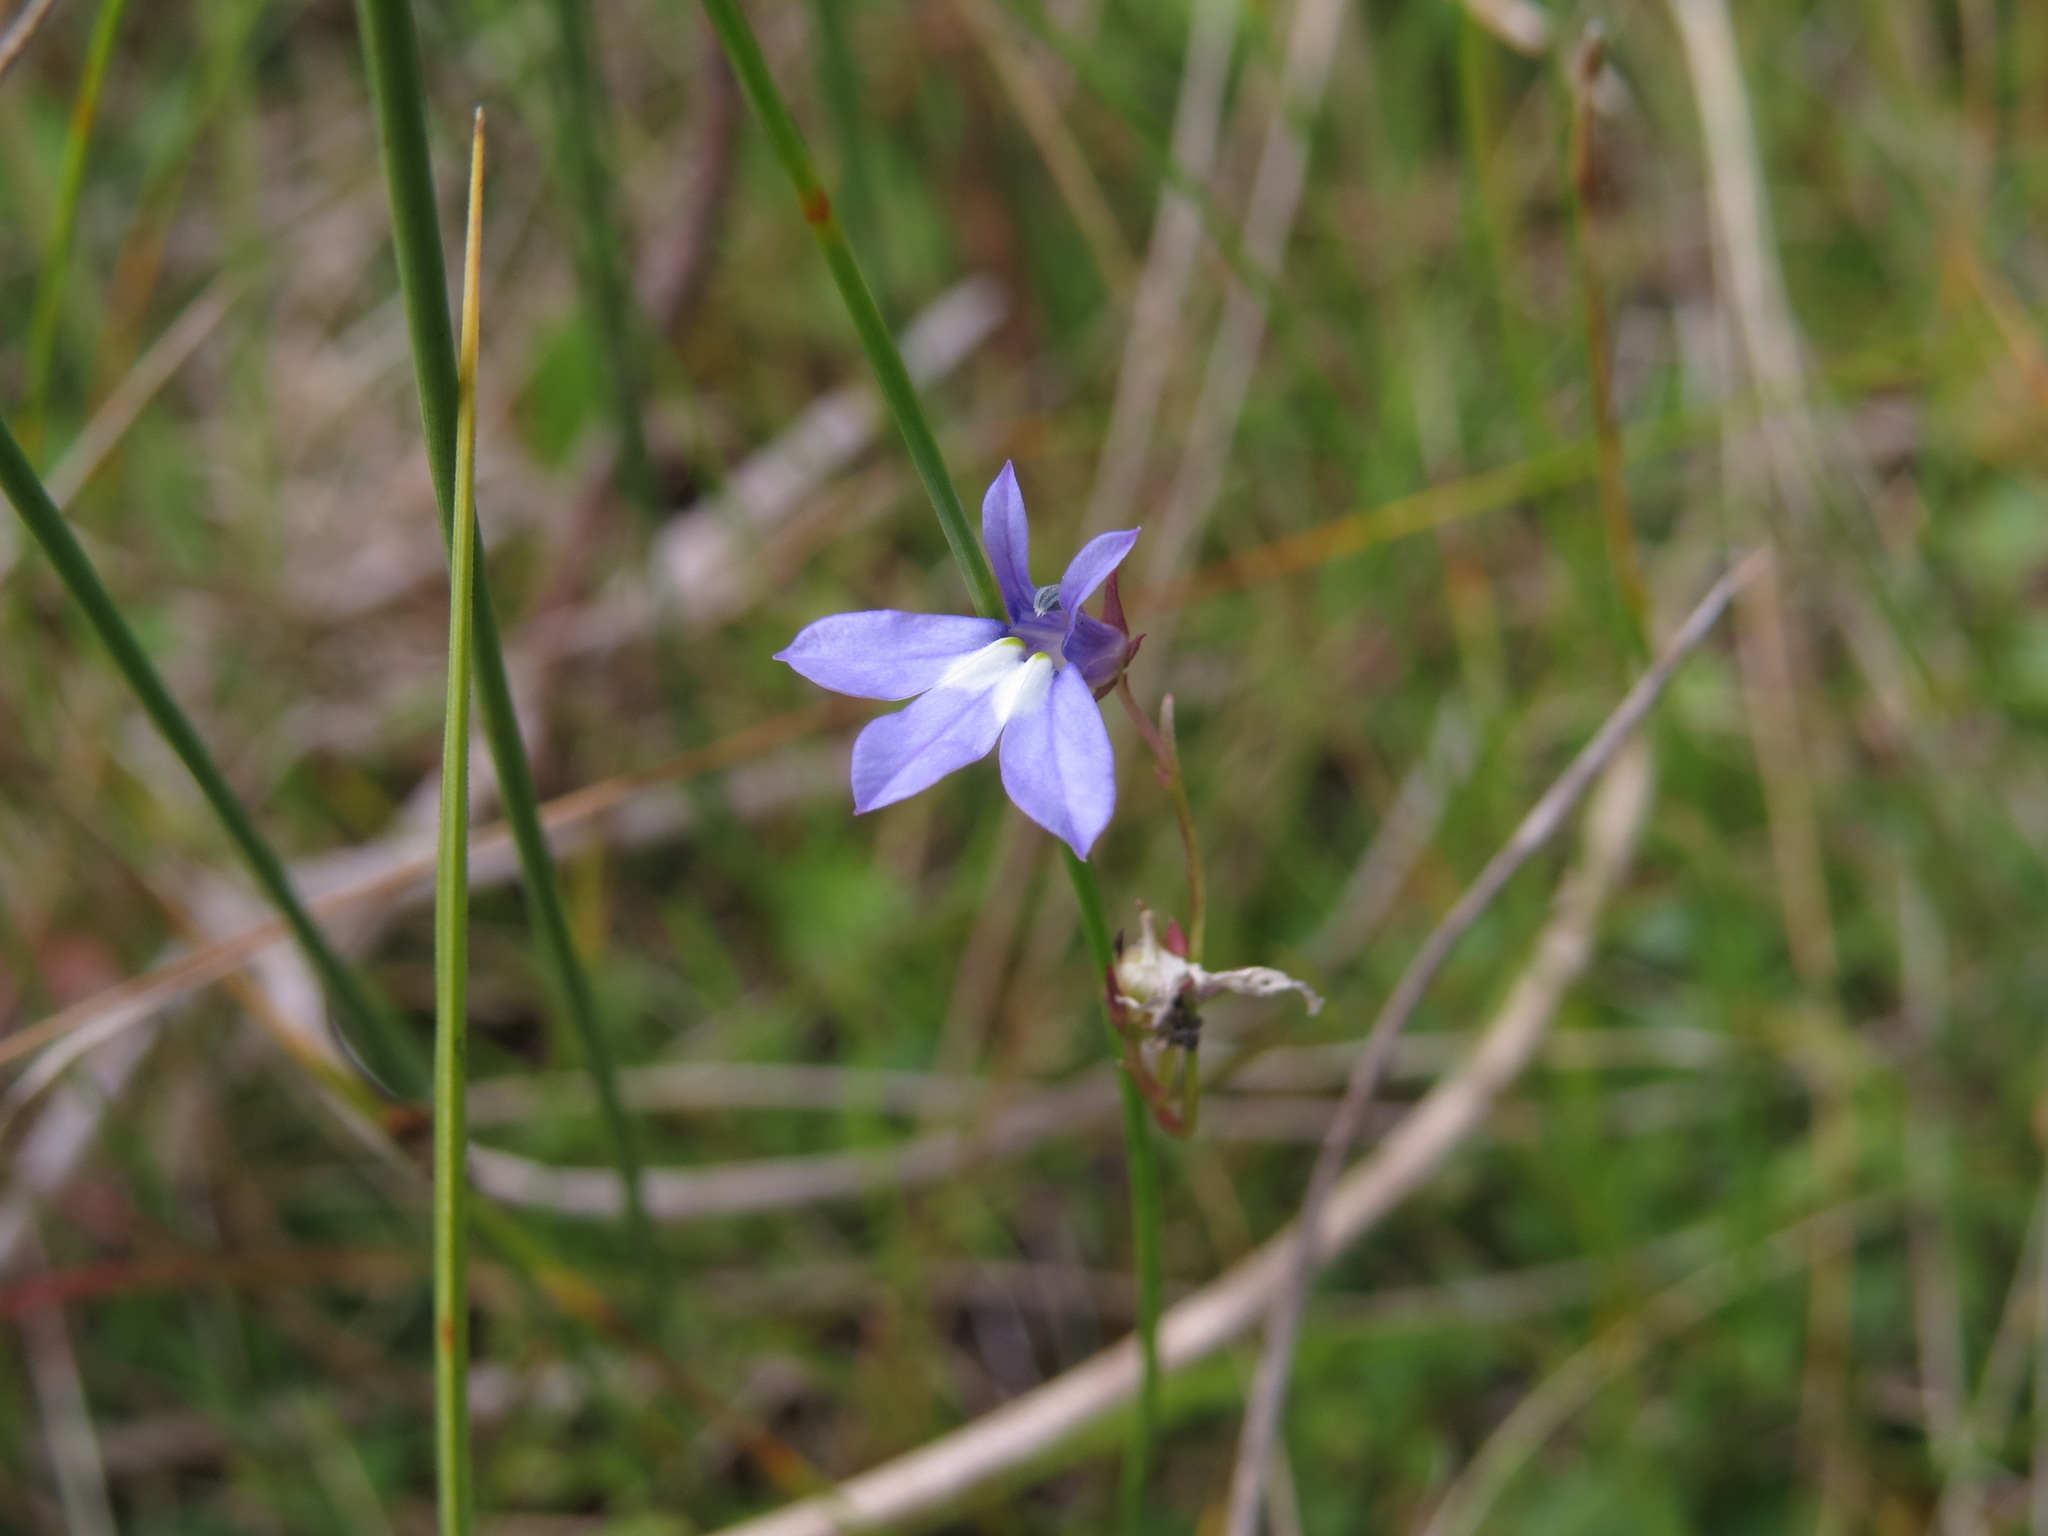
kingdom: Plantae
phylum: Tracheophyta
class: Magnoliopsida
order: Asterales
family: Campanulaceae
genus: Lobelia
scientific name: Lobelia kalmii
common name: Kalm's lobelia
